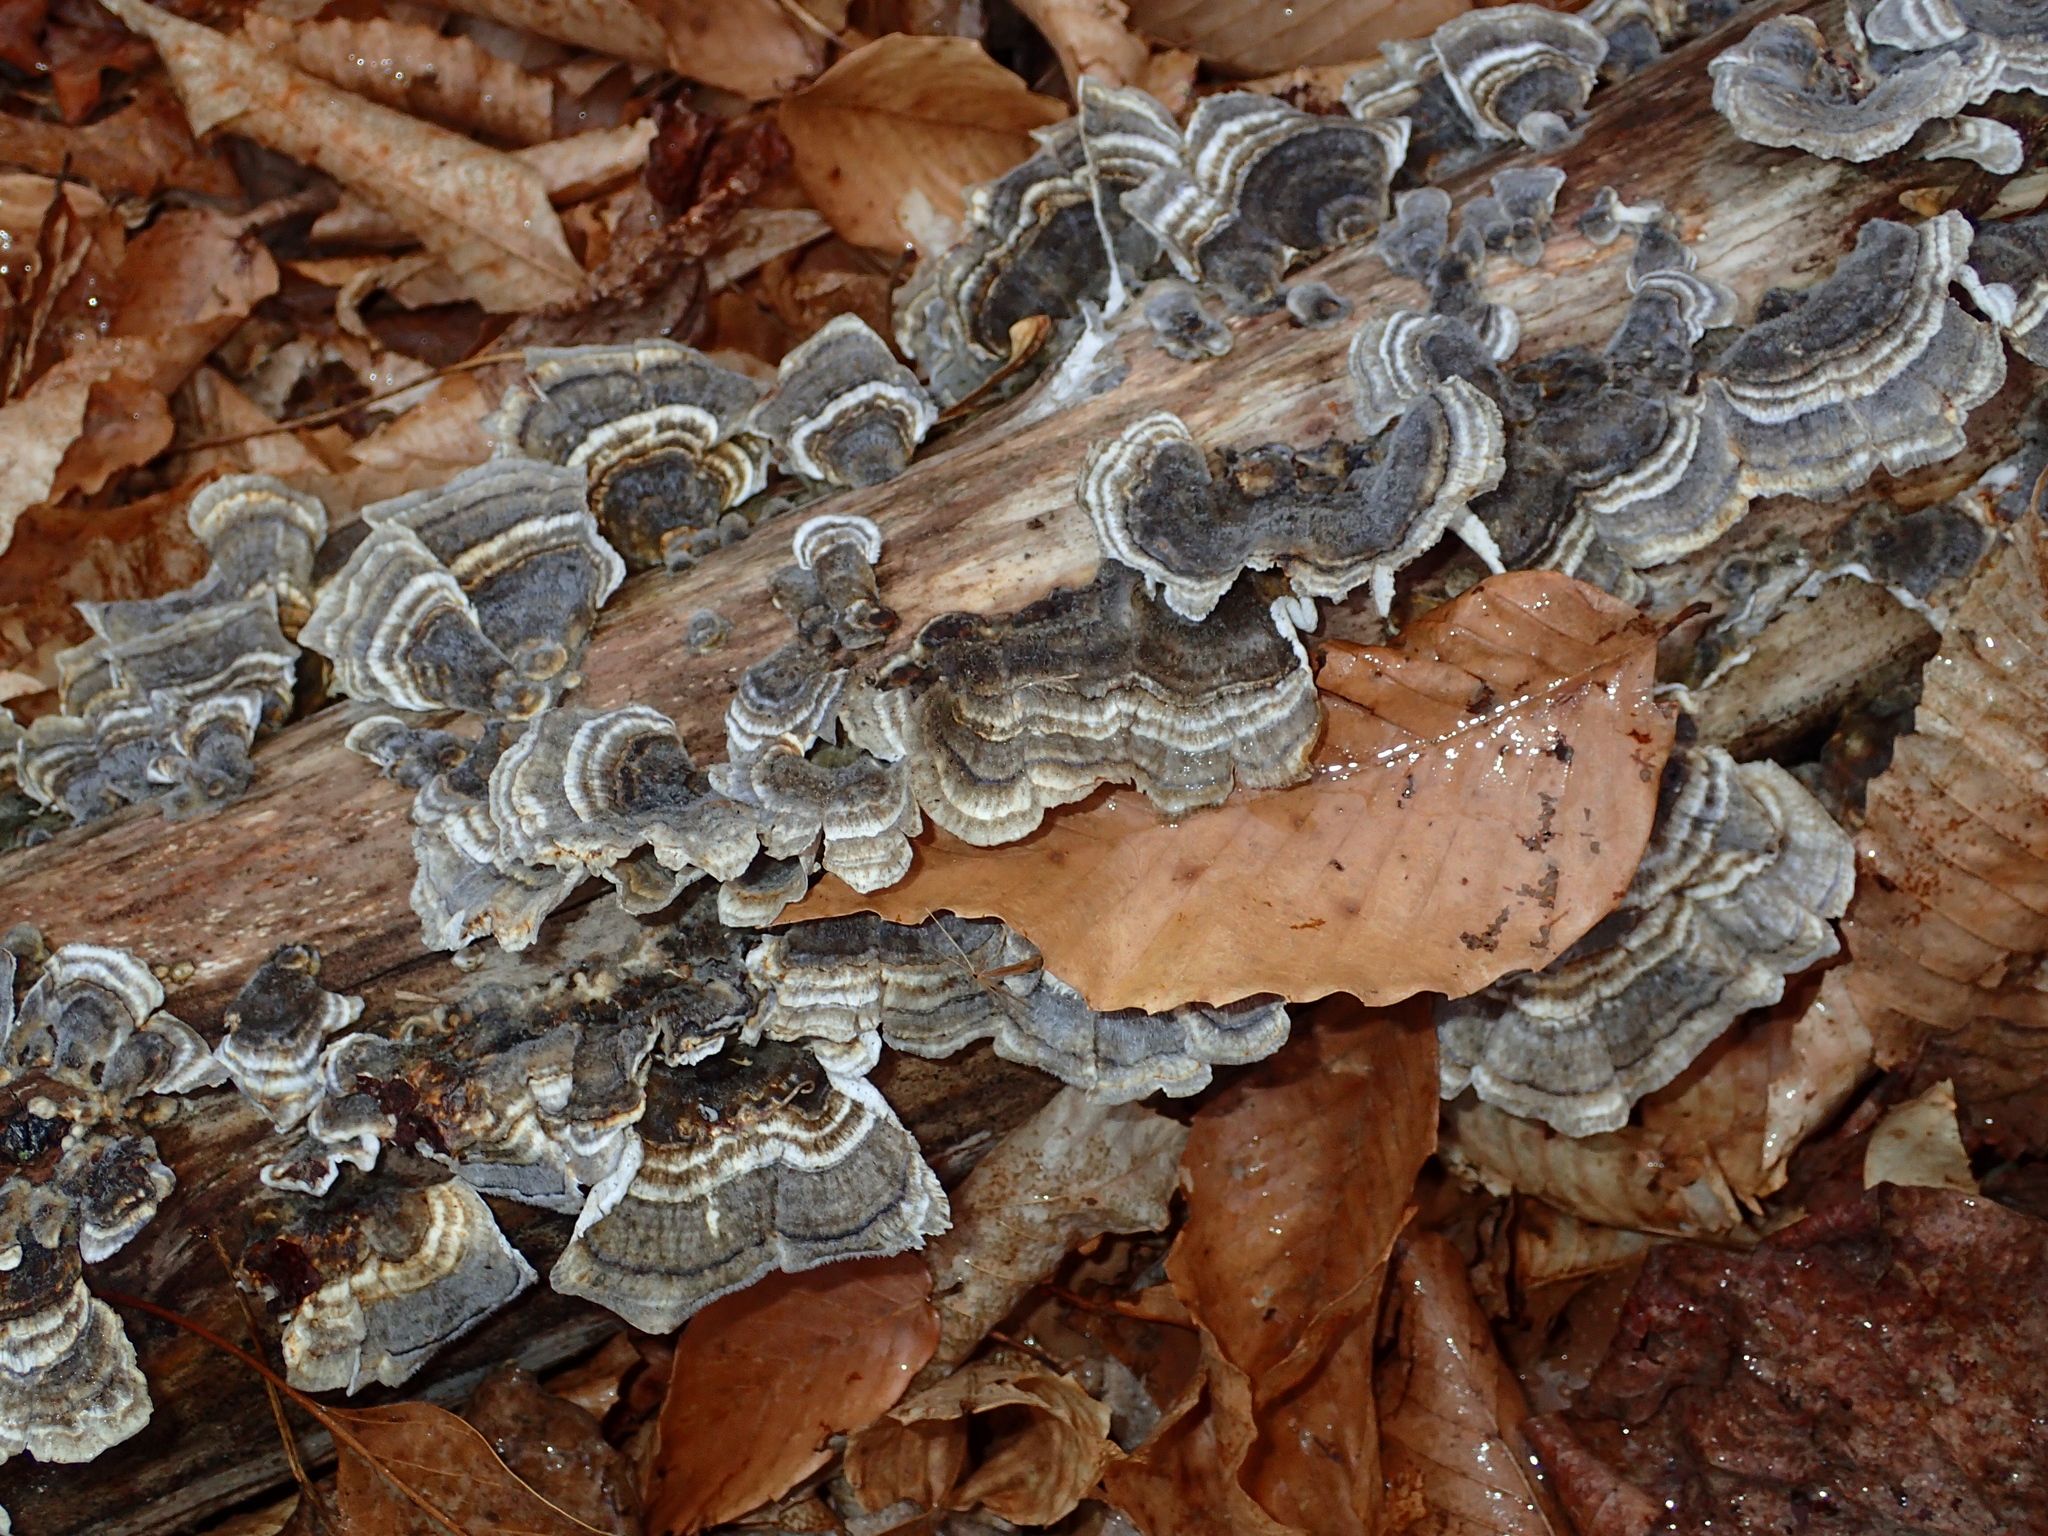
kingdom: Fungi
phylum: Basidiomycota
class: Agaricomycetes
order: Polyporales
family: Polyporaceae
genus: Trametes
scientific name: Trametes versicolor
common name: Turkeytail
